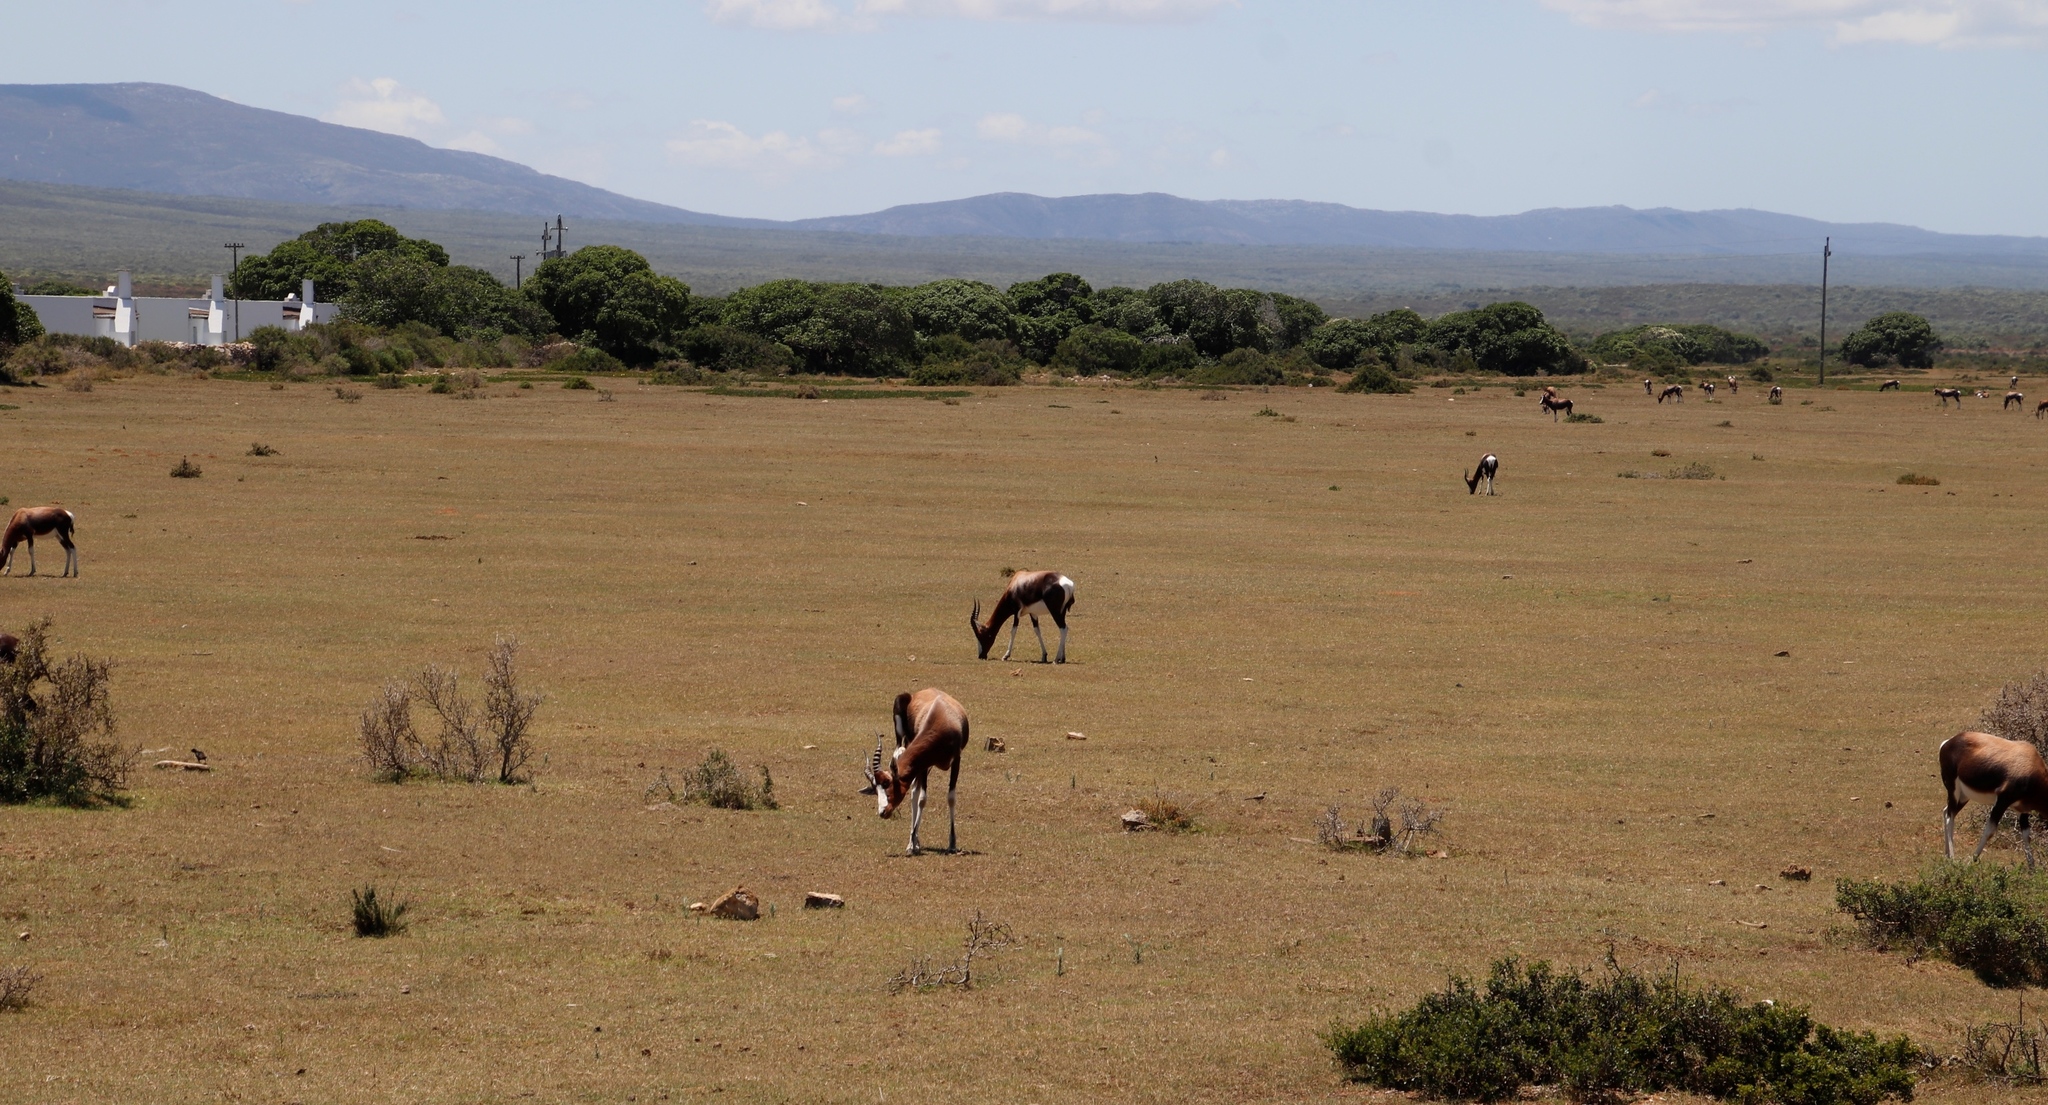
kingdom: Animalia
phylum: Chordata
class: Mammalia
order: Artiodactyla
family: Bovidae
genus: Damaliscus
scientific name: Damaliscus pygargus
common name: Bontebok
